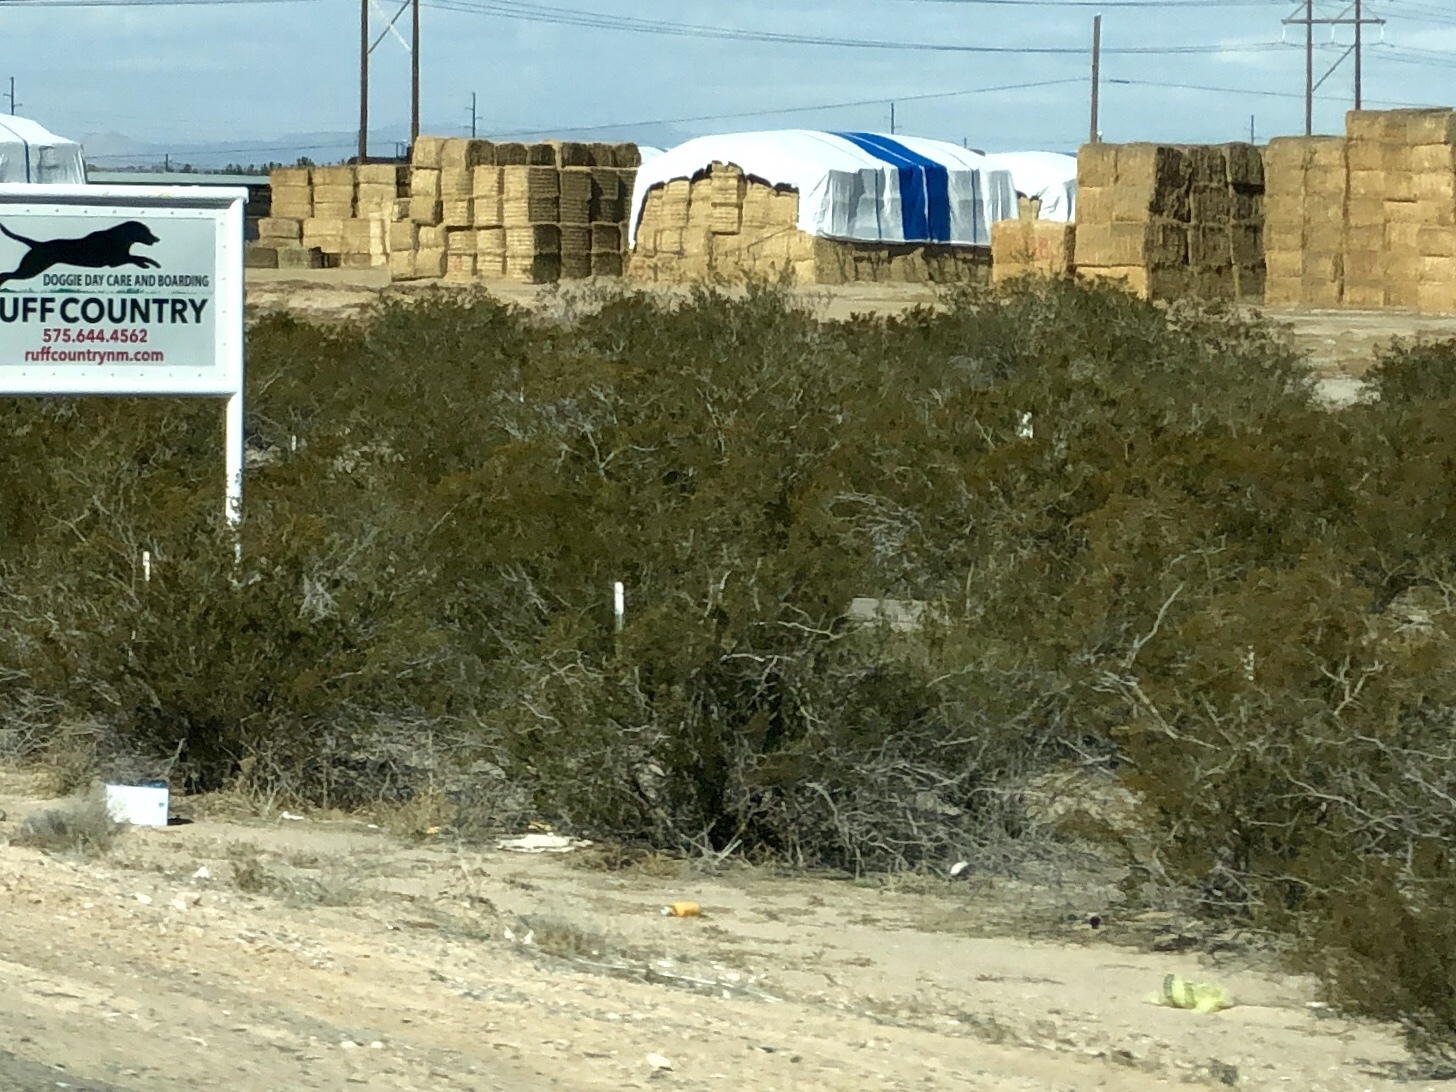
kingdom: Plantae
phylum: Tracheophyta
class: Magnoliopsida
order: Zygophyllales
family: Zygophyllaceae
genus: Larrea
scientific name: Larrea tridentata
